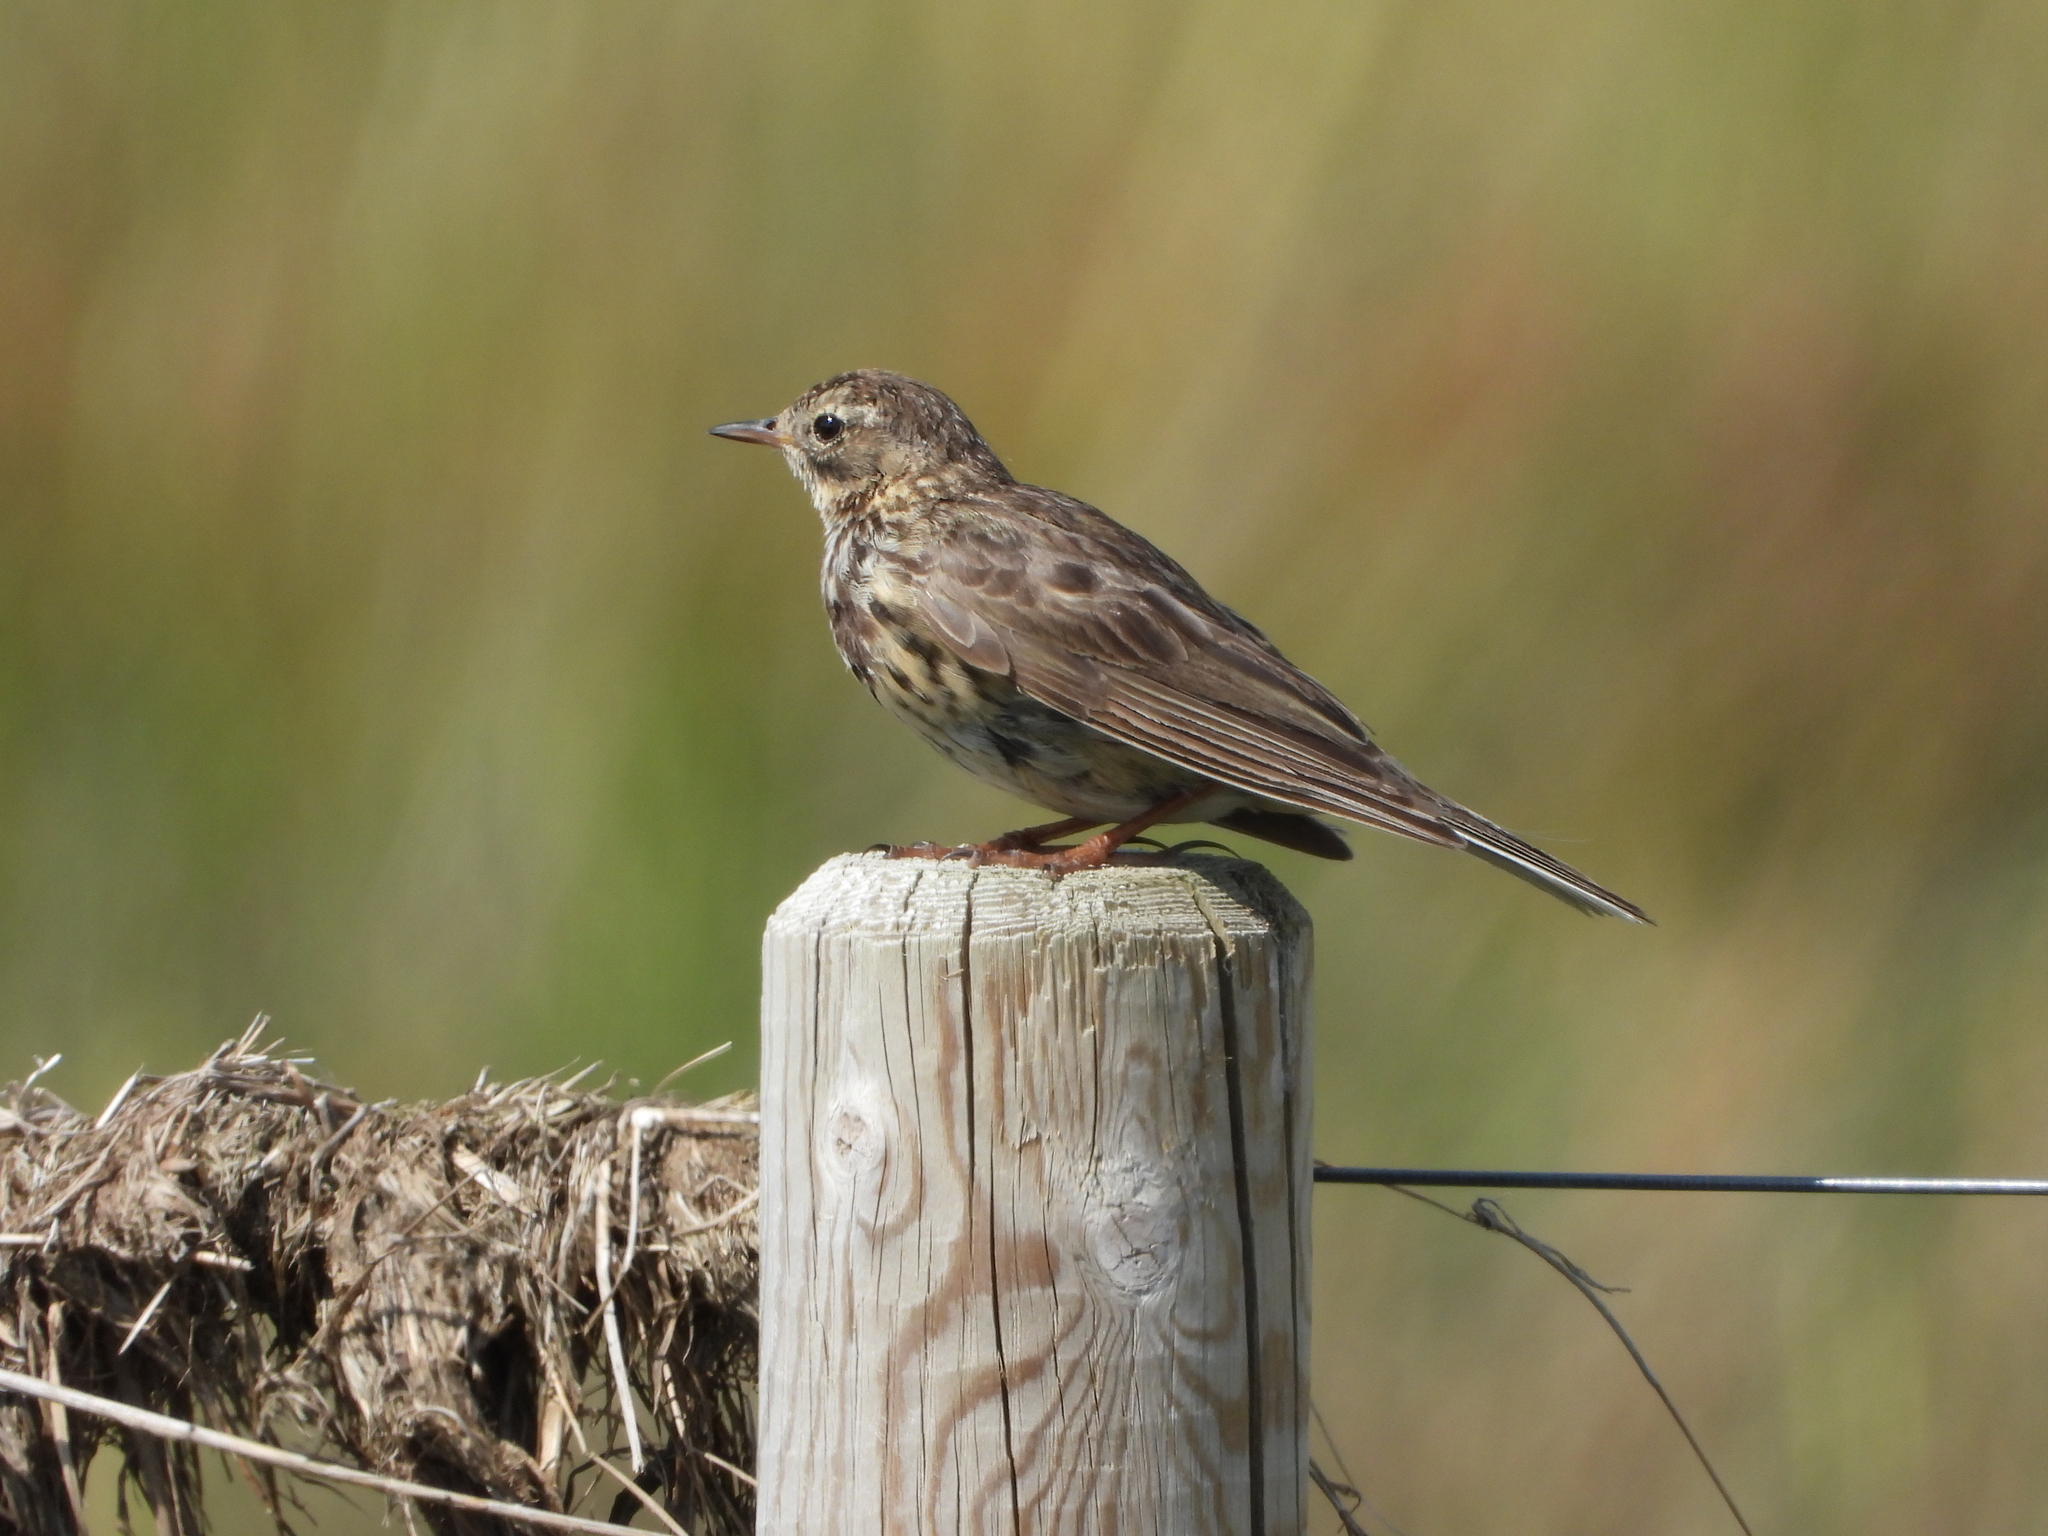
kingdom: Animalia
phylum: Chordata
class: Aves
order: Passeriformes
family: Motacillidae
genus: Anthus
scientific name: Anthus pratensis
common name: Meadow pipit
